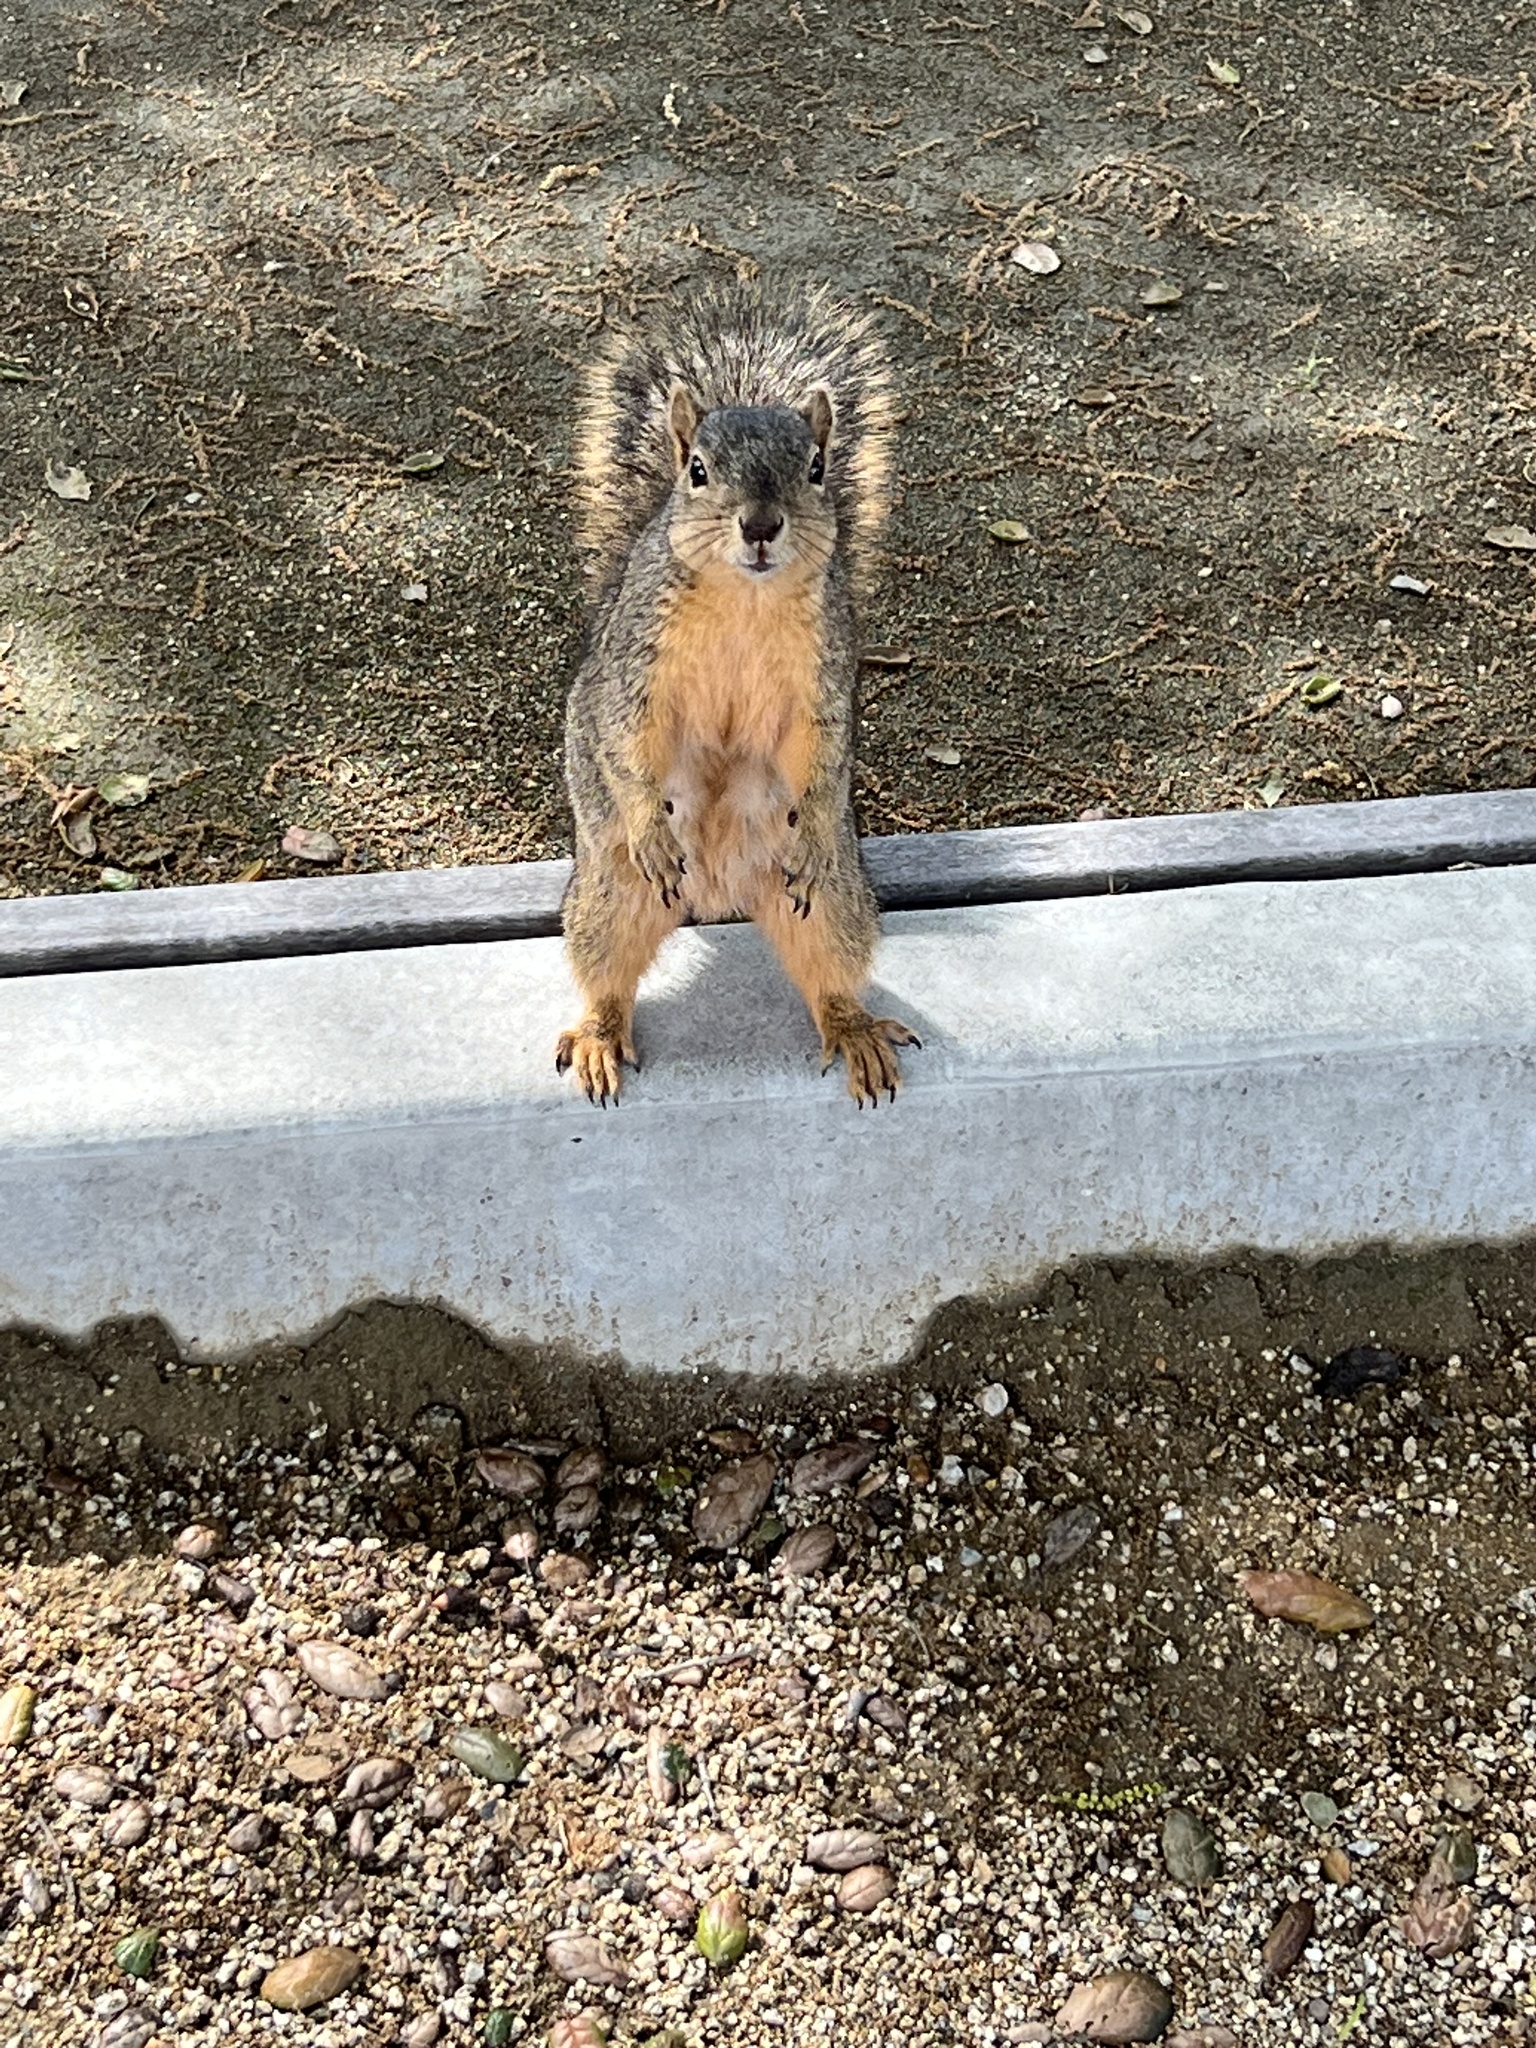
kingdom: Animalia
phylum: Chordata
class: Mammalia
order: Rodentia
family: Sciuridae
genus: Sciurus
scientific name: Sciurus niger
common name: Fox squirrel
